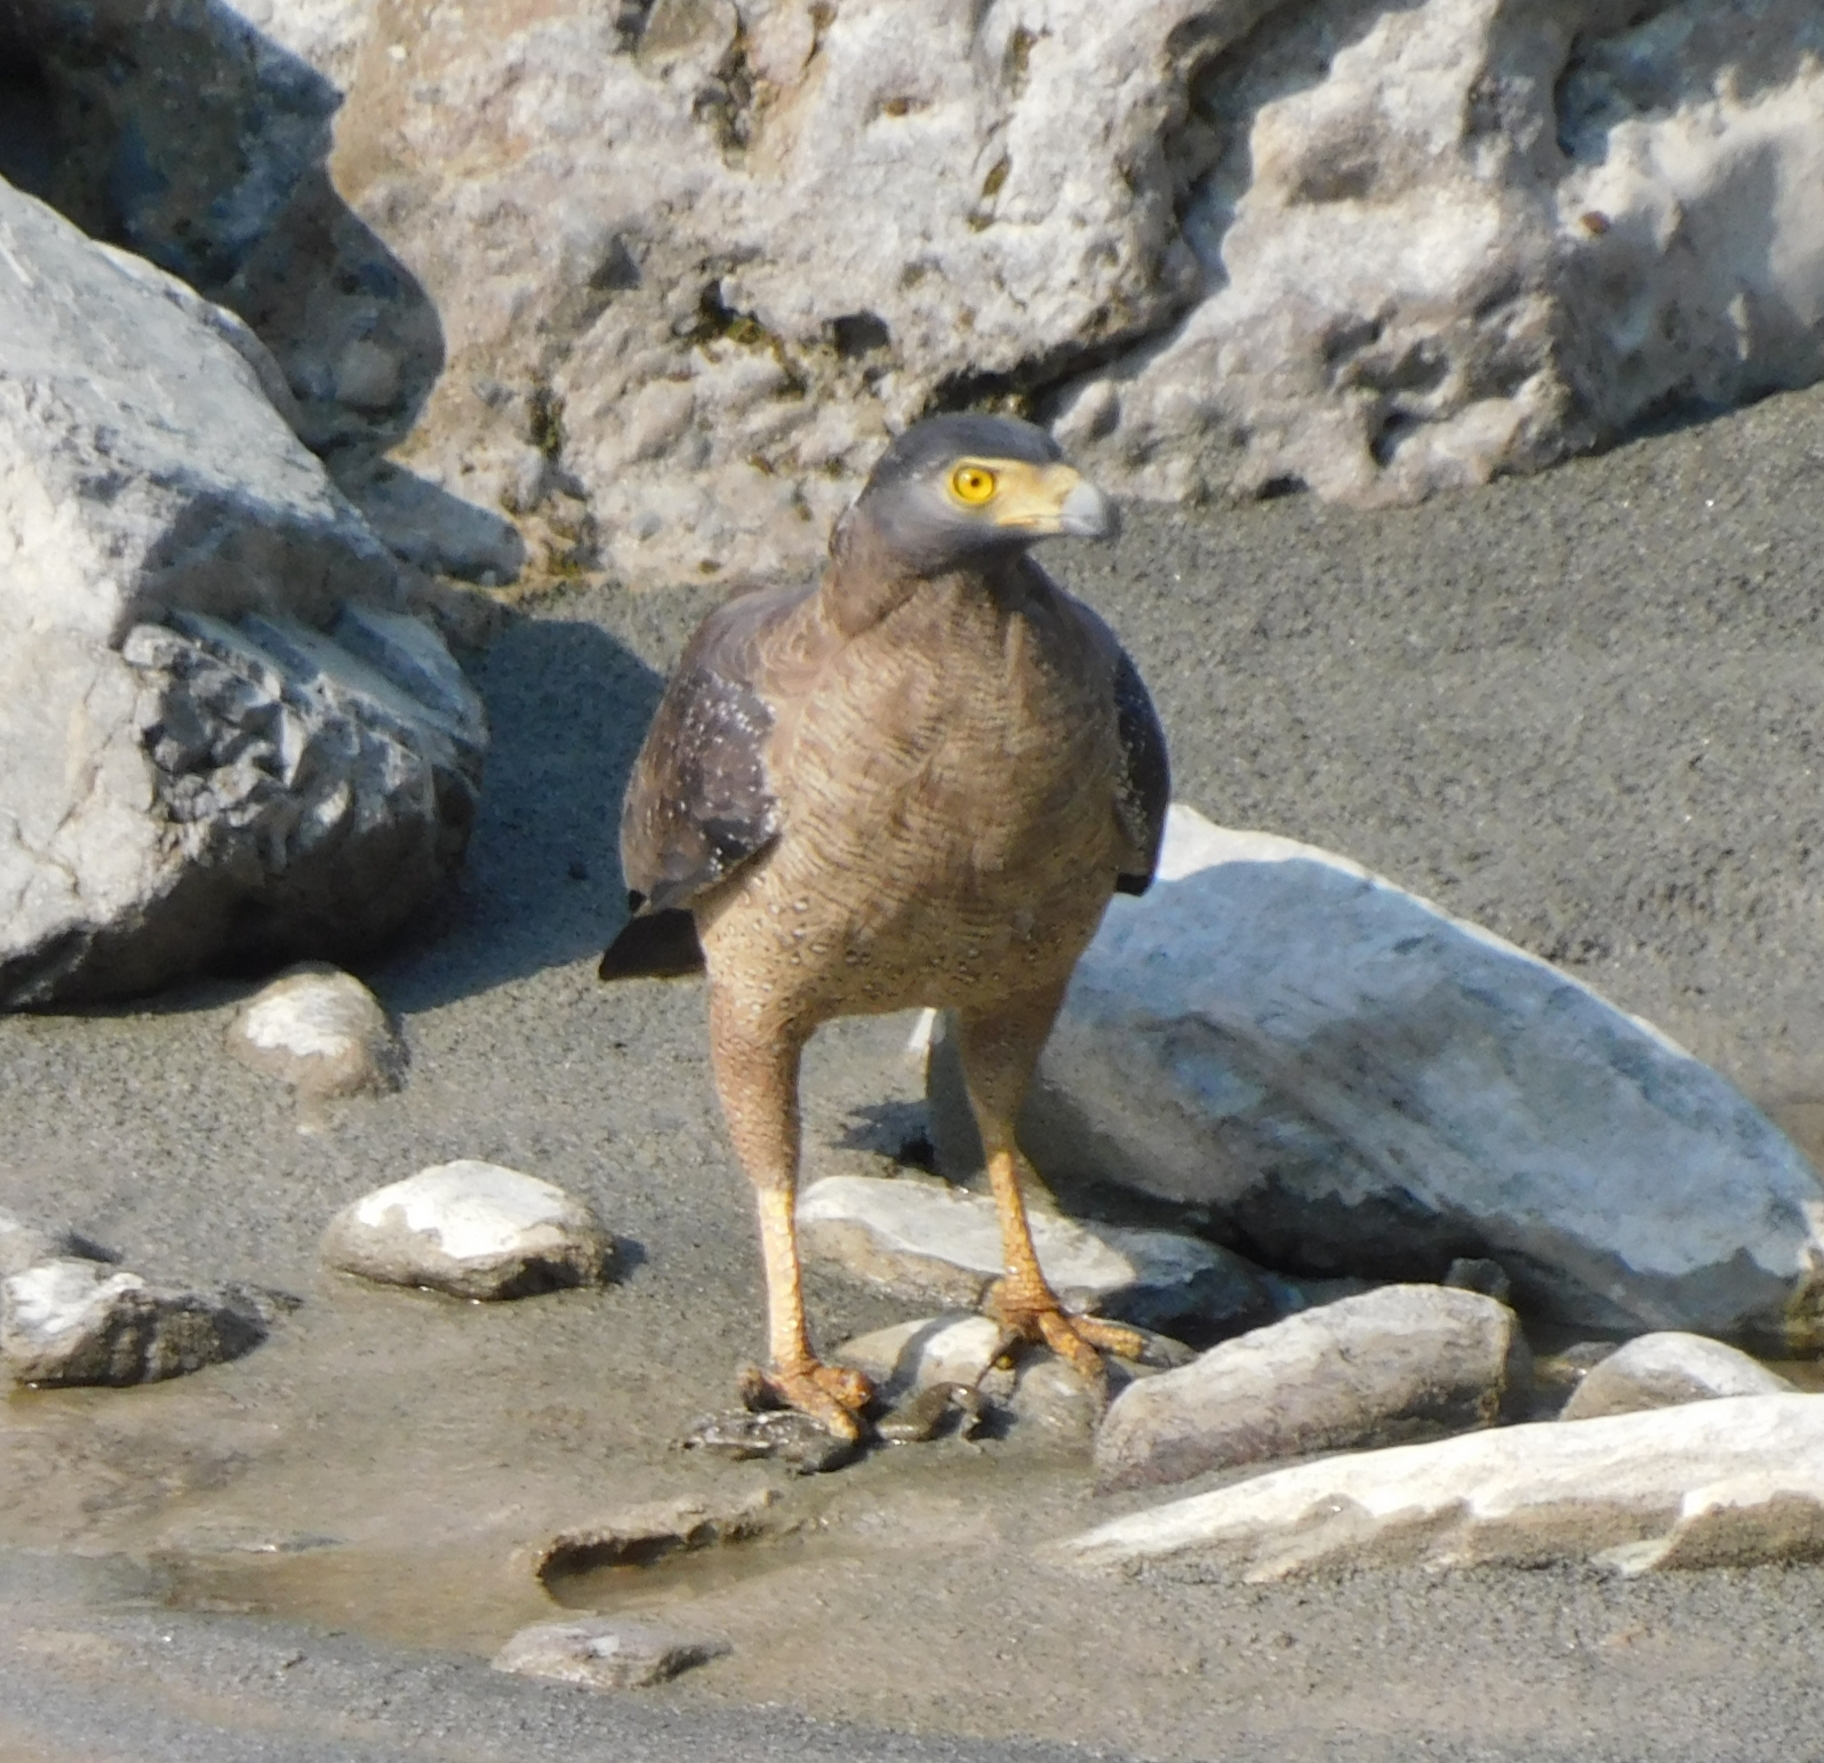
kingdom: Animalia
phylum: Chordata
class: Aves
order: Accipitriformes
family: Accipitridae
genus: Spilornis
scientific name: Spilornis cheela
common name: Crested serpent eagle
